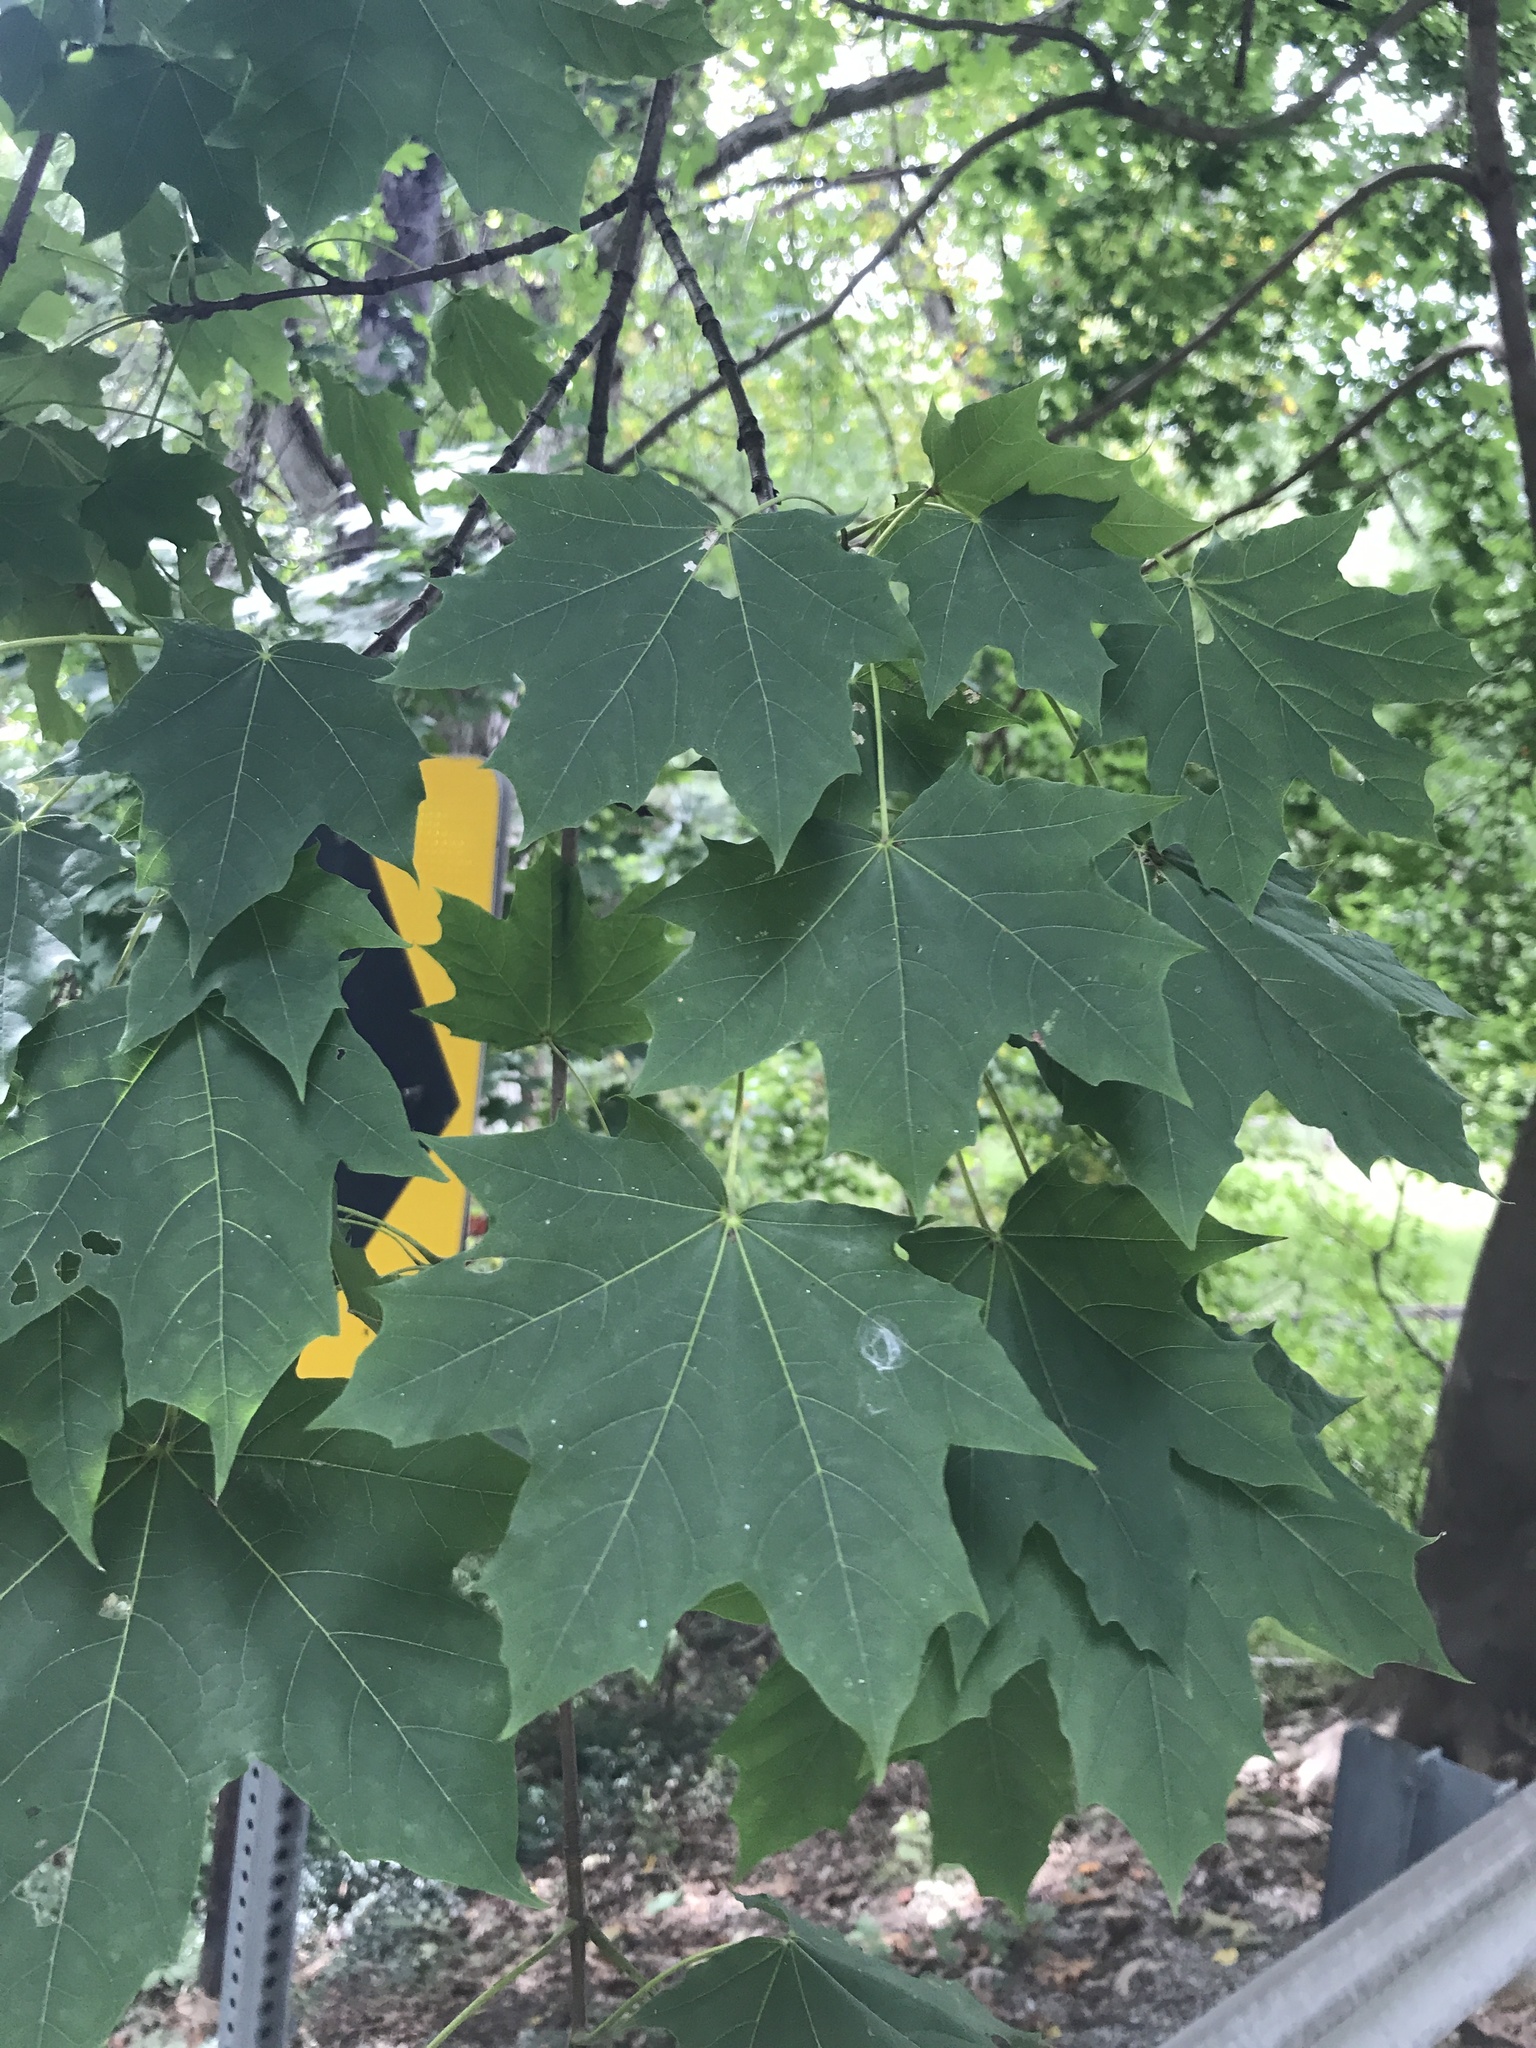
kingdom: Plantae
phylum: Tracheophyta
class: Magnoliopsida
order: Sapindales
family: Sapindaceae
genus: Acer
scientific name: Acer platanoides
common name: Norway maple
